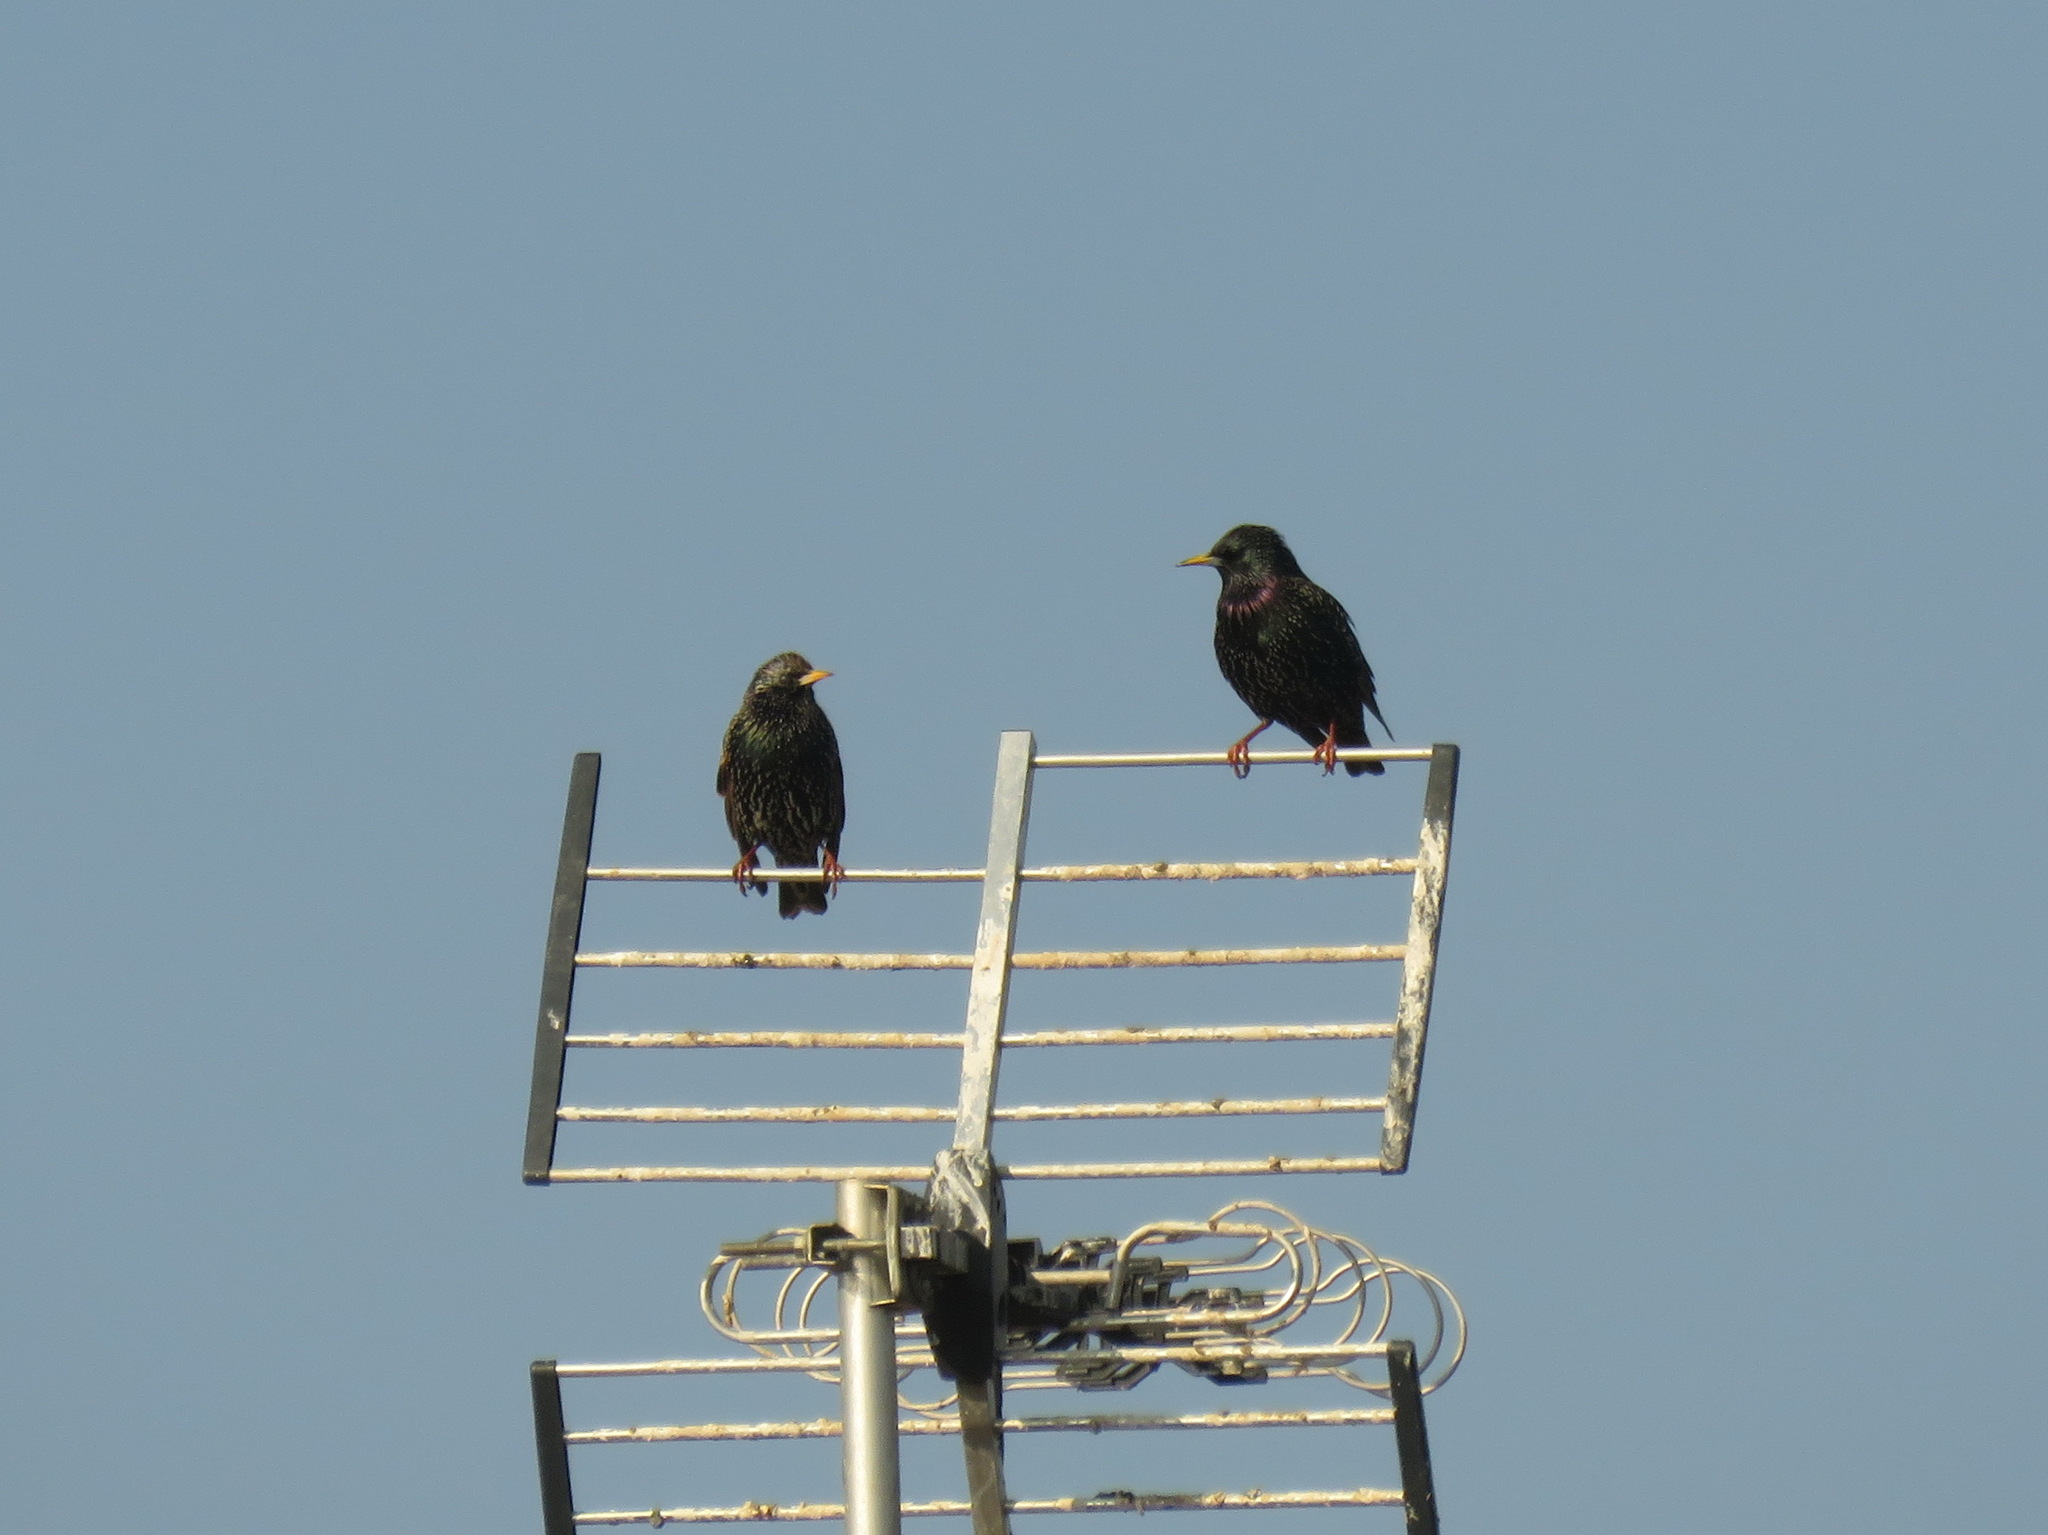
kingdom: Animalia
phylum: Chordata
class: Aves
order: Passeriformes
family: Sturnidae
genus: Sturnus
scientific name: Sturnus vulgaris
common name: Common starling
